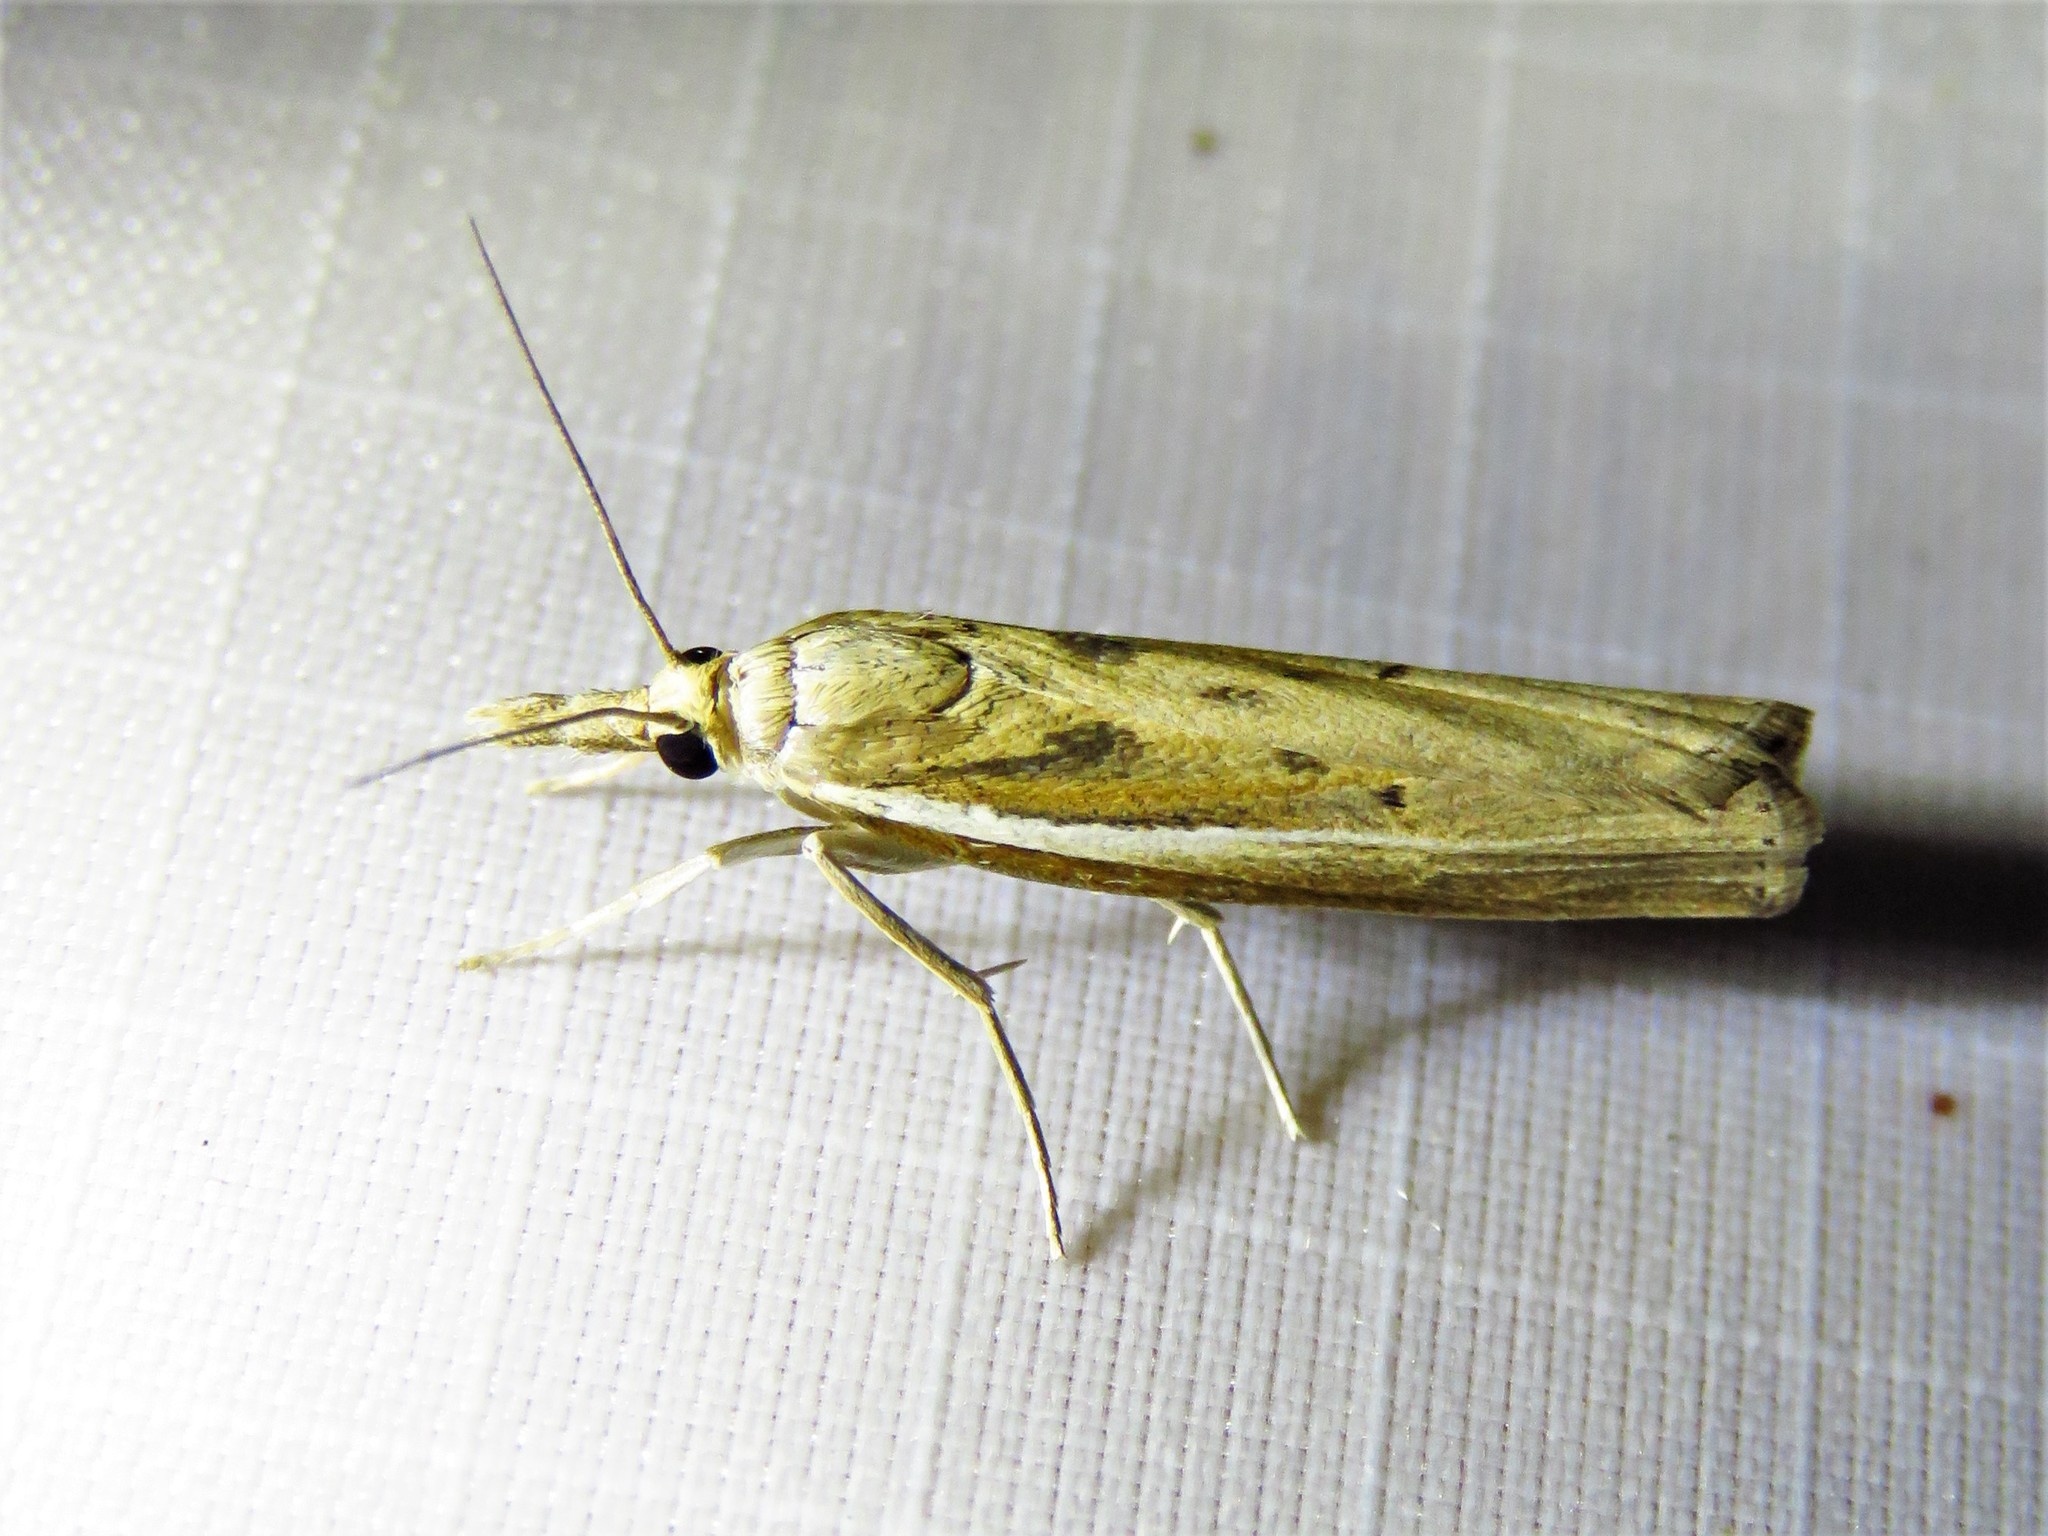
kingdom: Animalia
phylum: Arthropoda
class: Insecta
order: Lepidoptera
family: Crambidae
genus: Fissicrambus
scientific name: Fissicrambus profanellus
